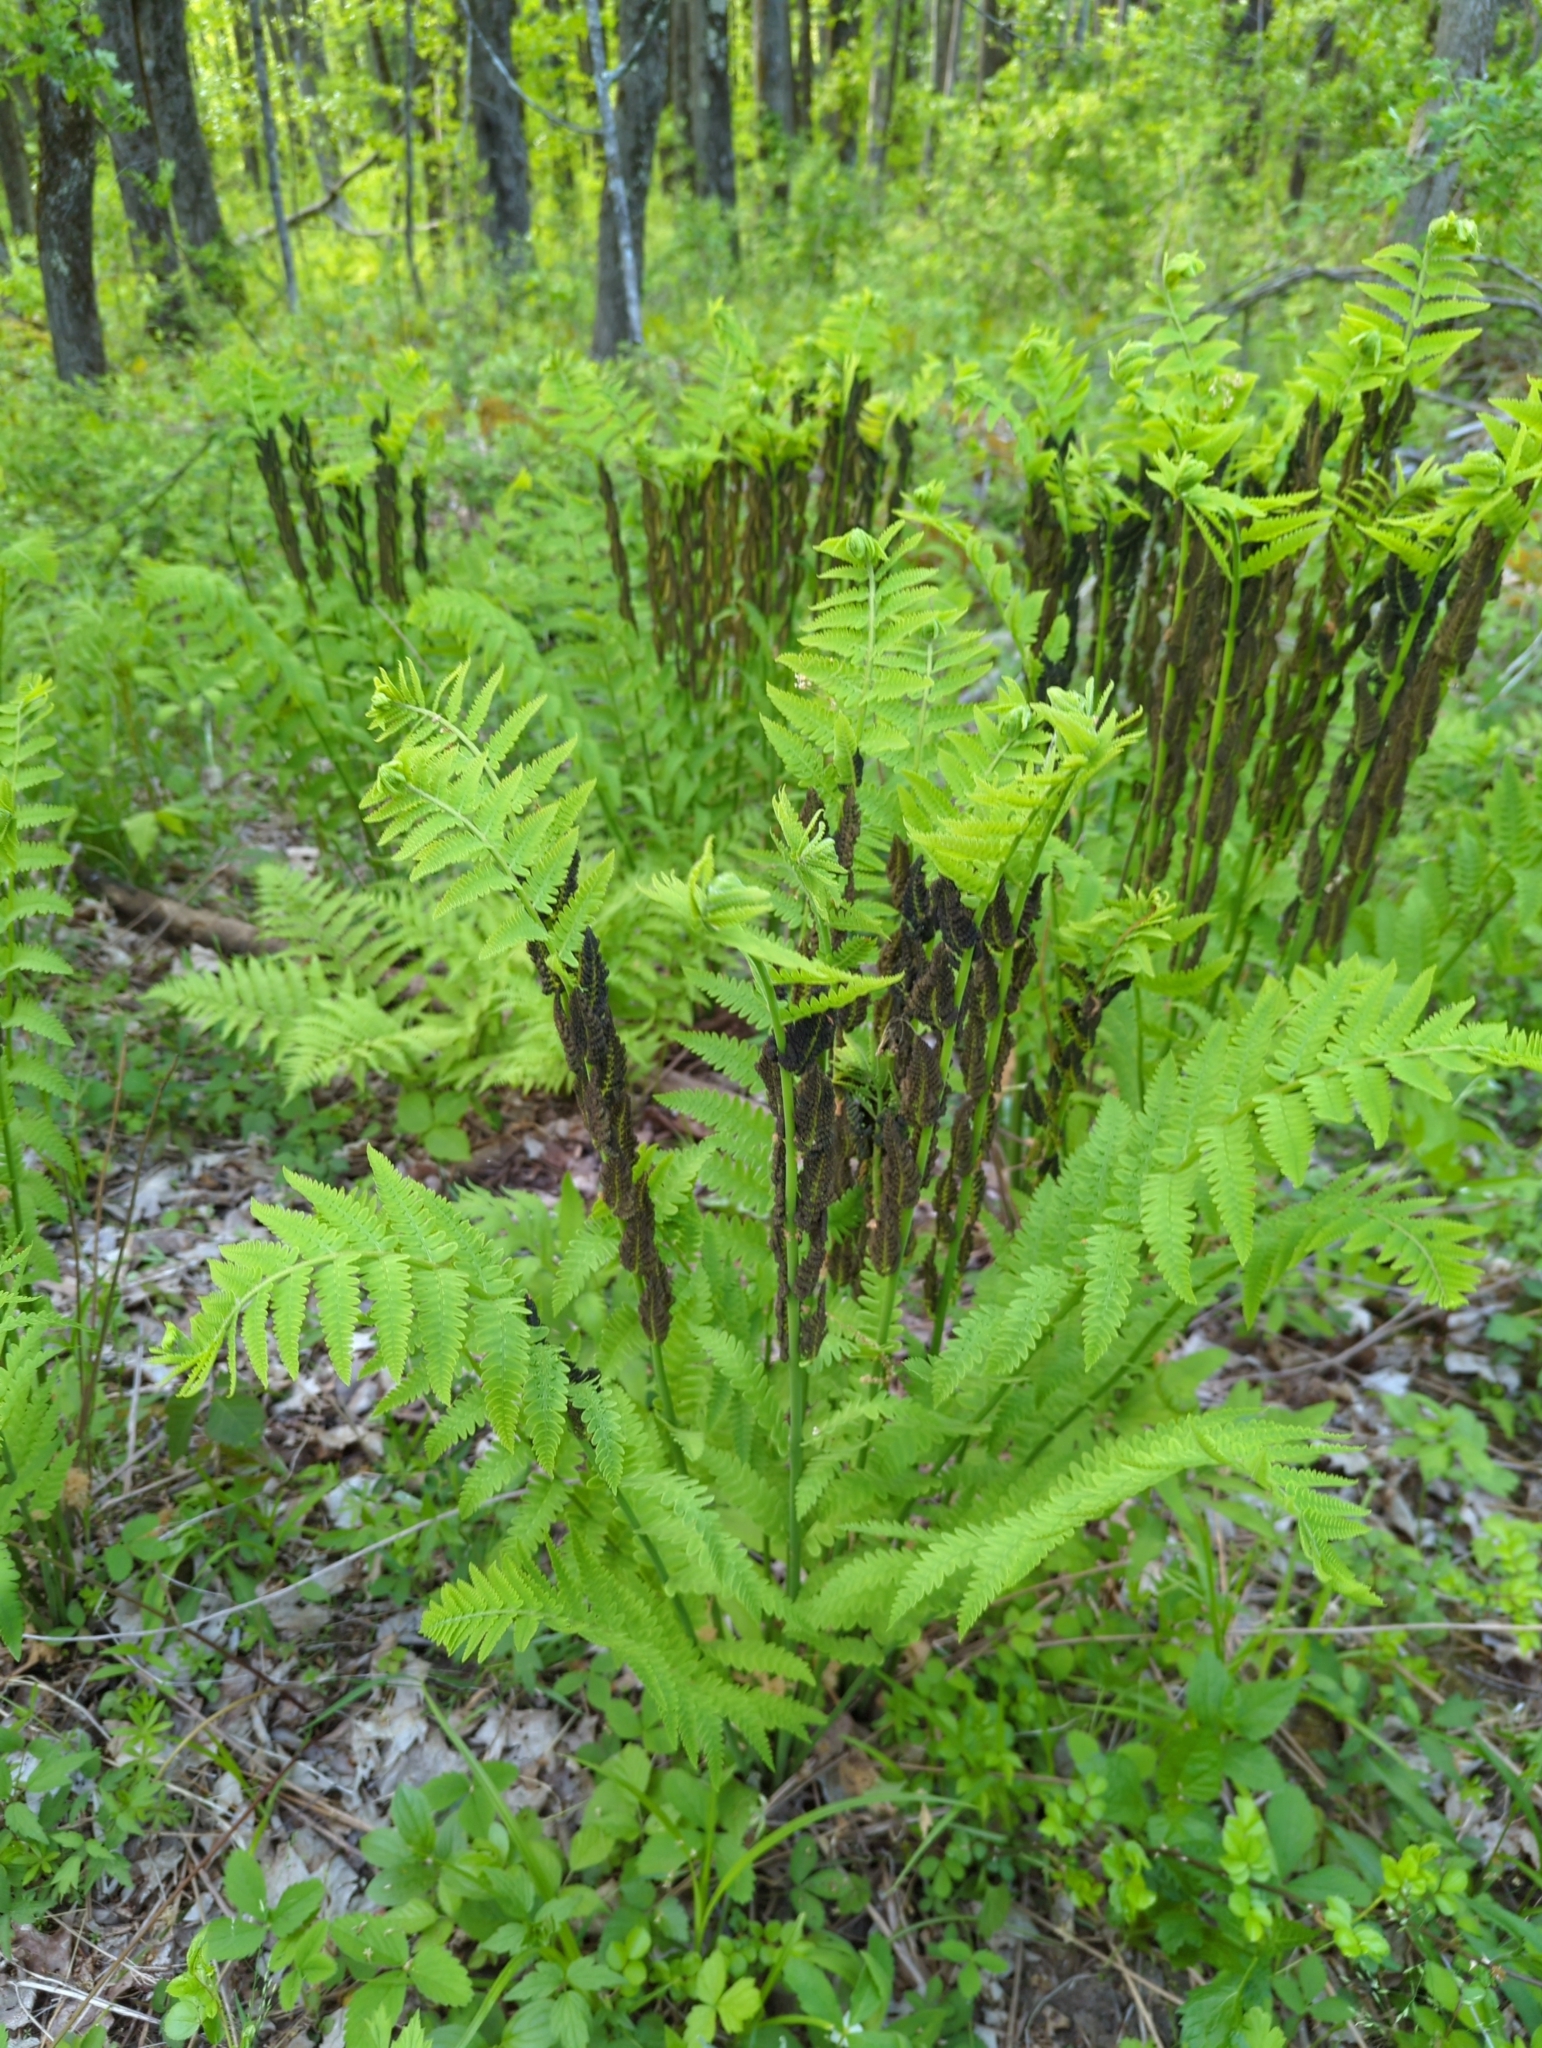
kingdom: Plantae
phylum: Tracheophyta
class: Polypodiopsida
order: Osmundales
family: Osmundaceae
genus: Claytosmunda
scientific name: Claytosmunda claytoniana
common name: Clayton's fern
